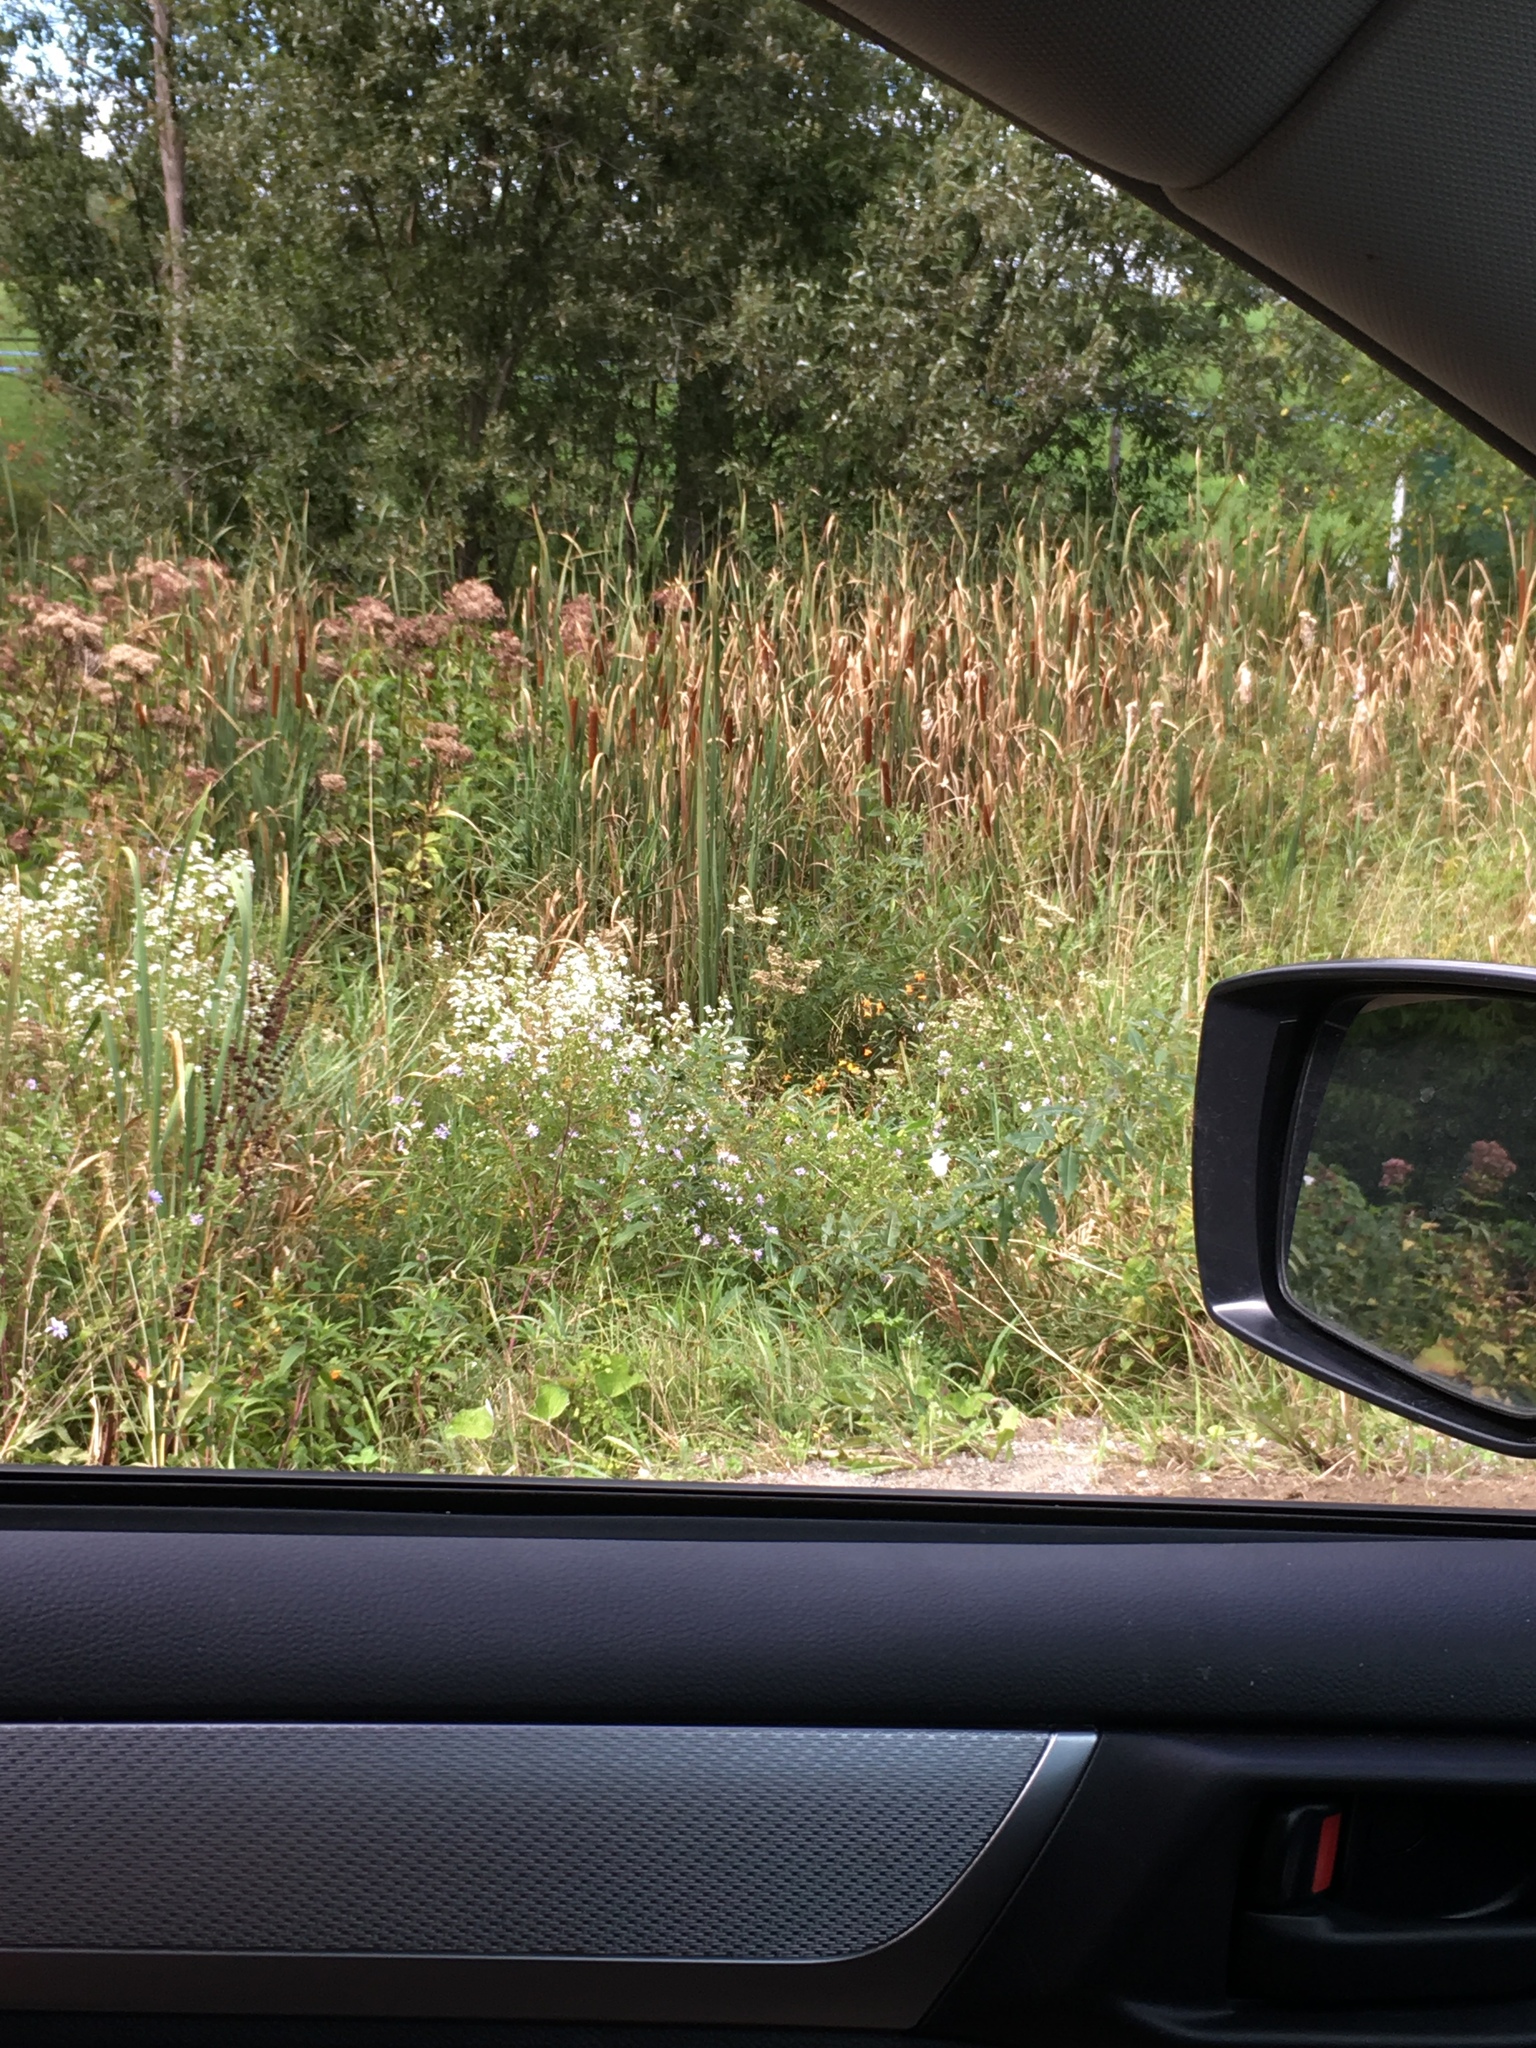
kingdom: Plantae
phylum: Tracheophyta
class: Liliopsida
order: Poales
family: Typhaceae
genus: Typha
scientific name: Typha
